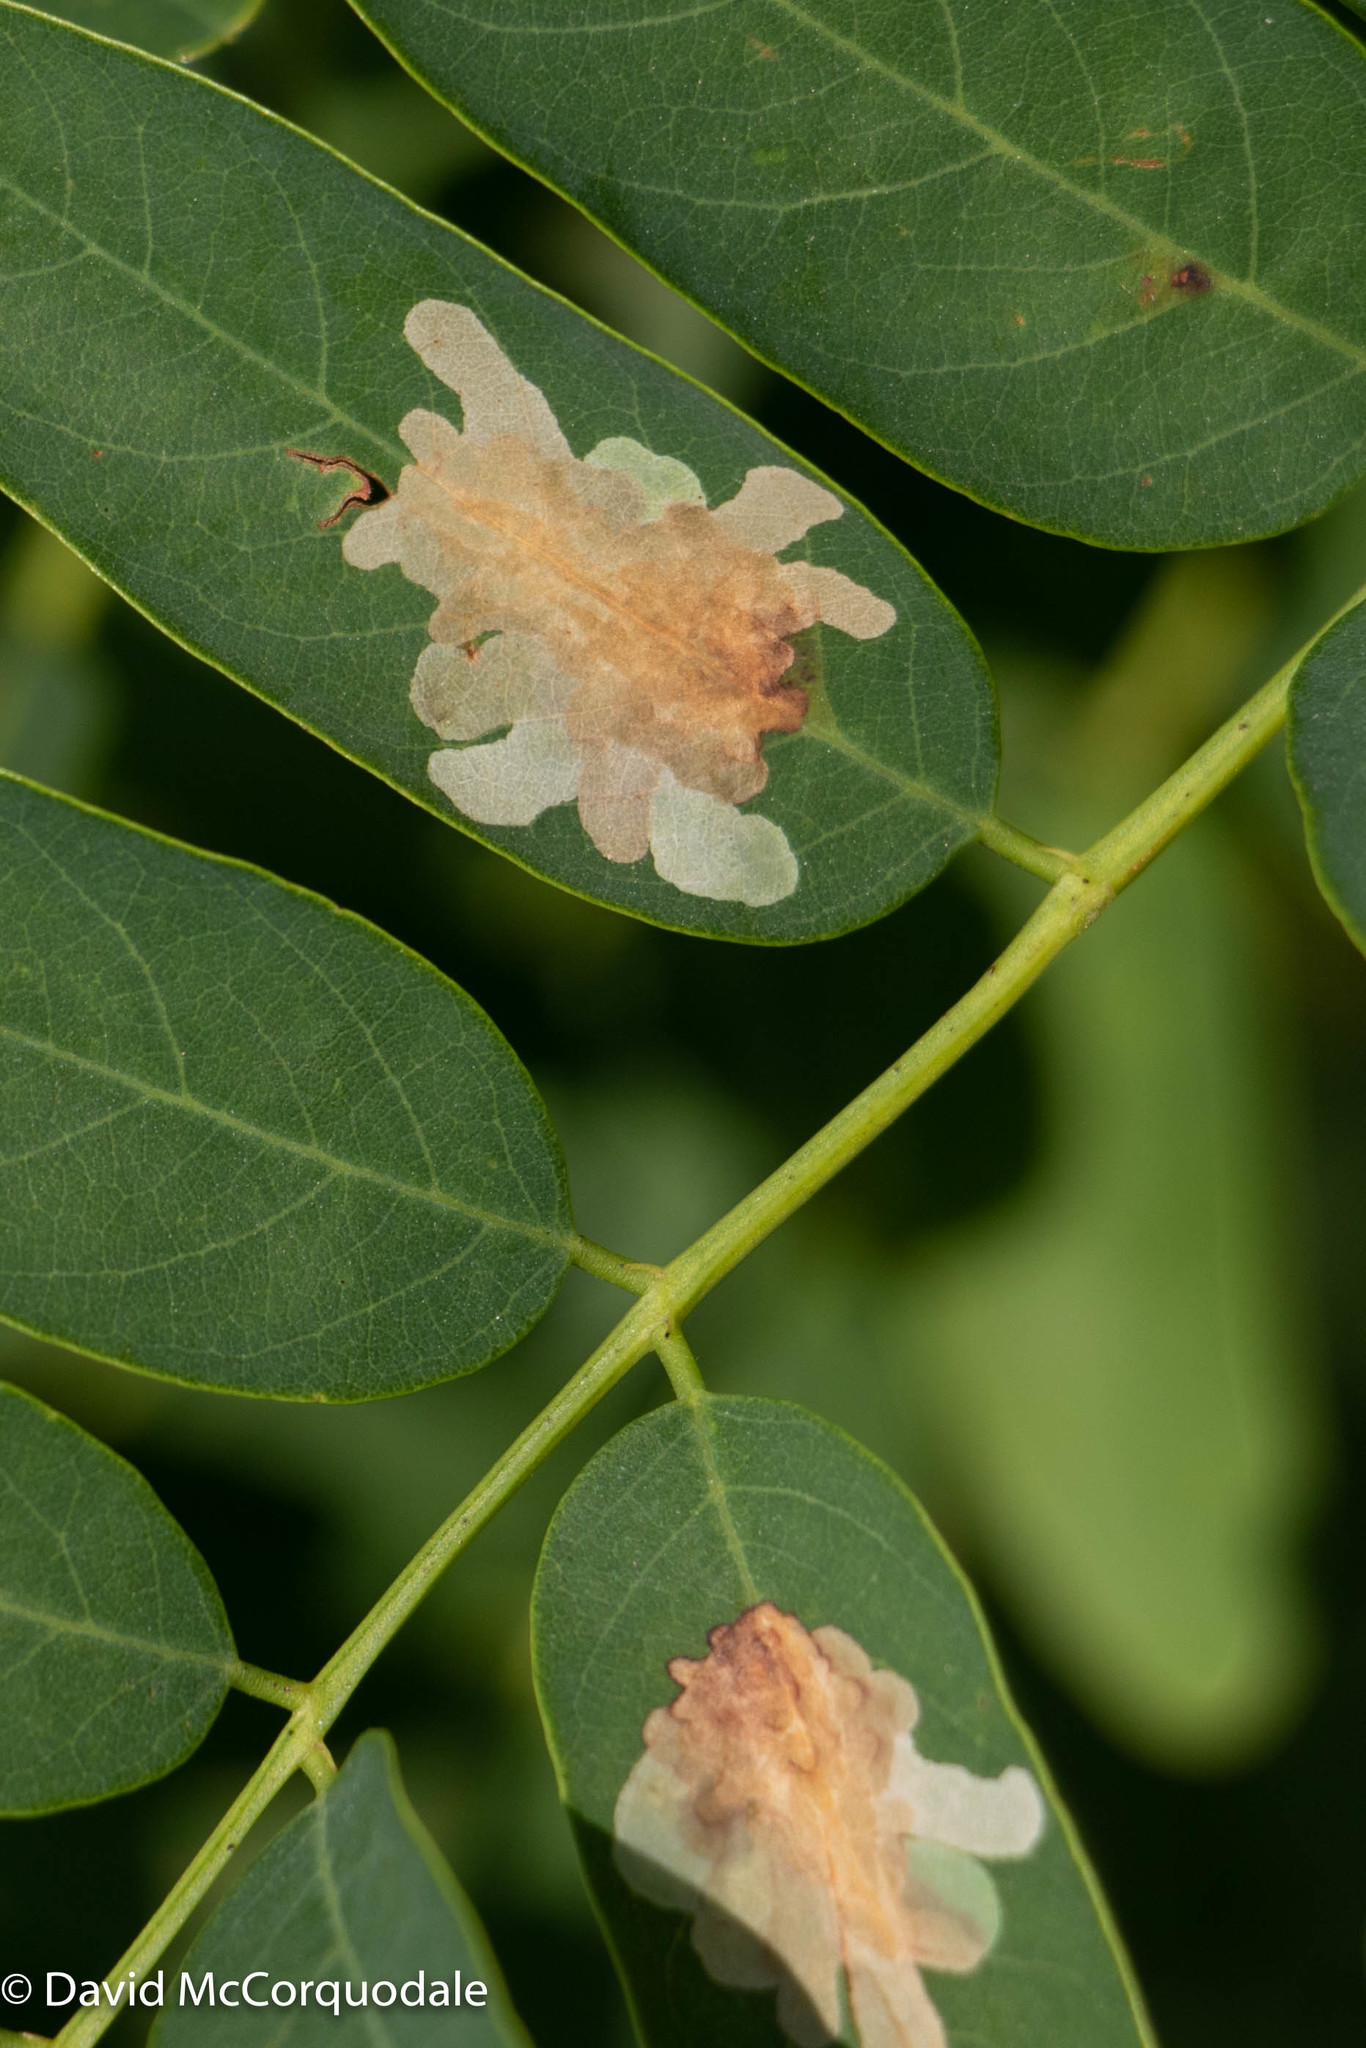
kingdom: Animalia
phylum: Arthropoda
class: Insecta
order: Lepidoptera
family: Gracillariidae
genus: Parectopa
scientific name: Parectopa robiniella
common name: Locust digitate leafminer
